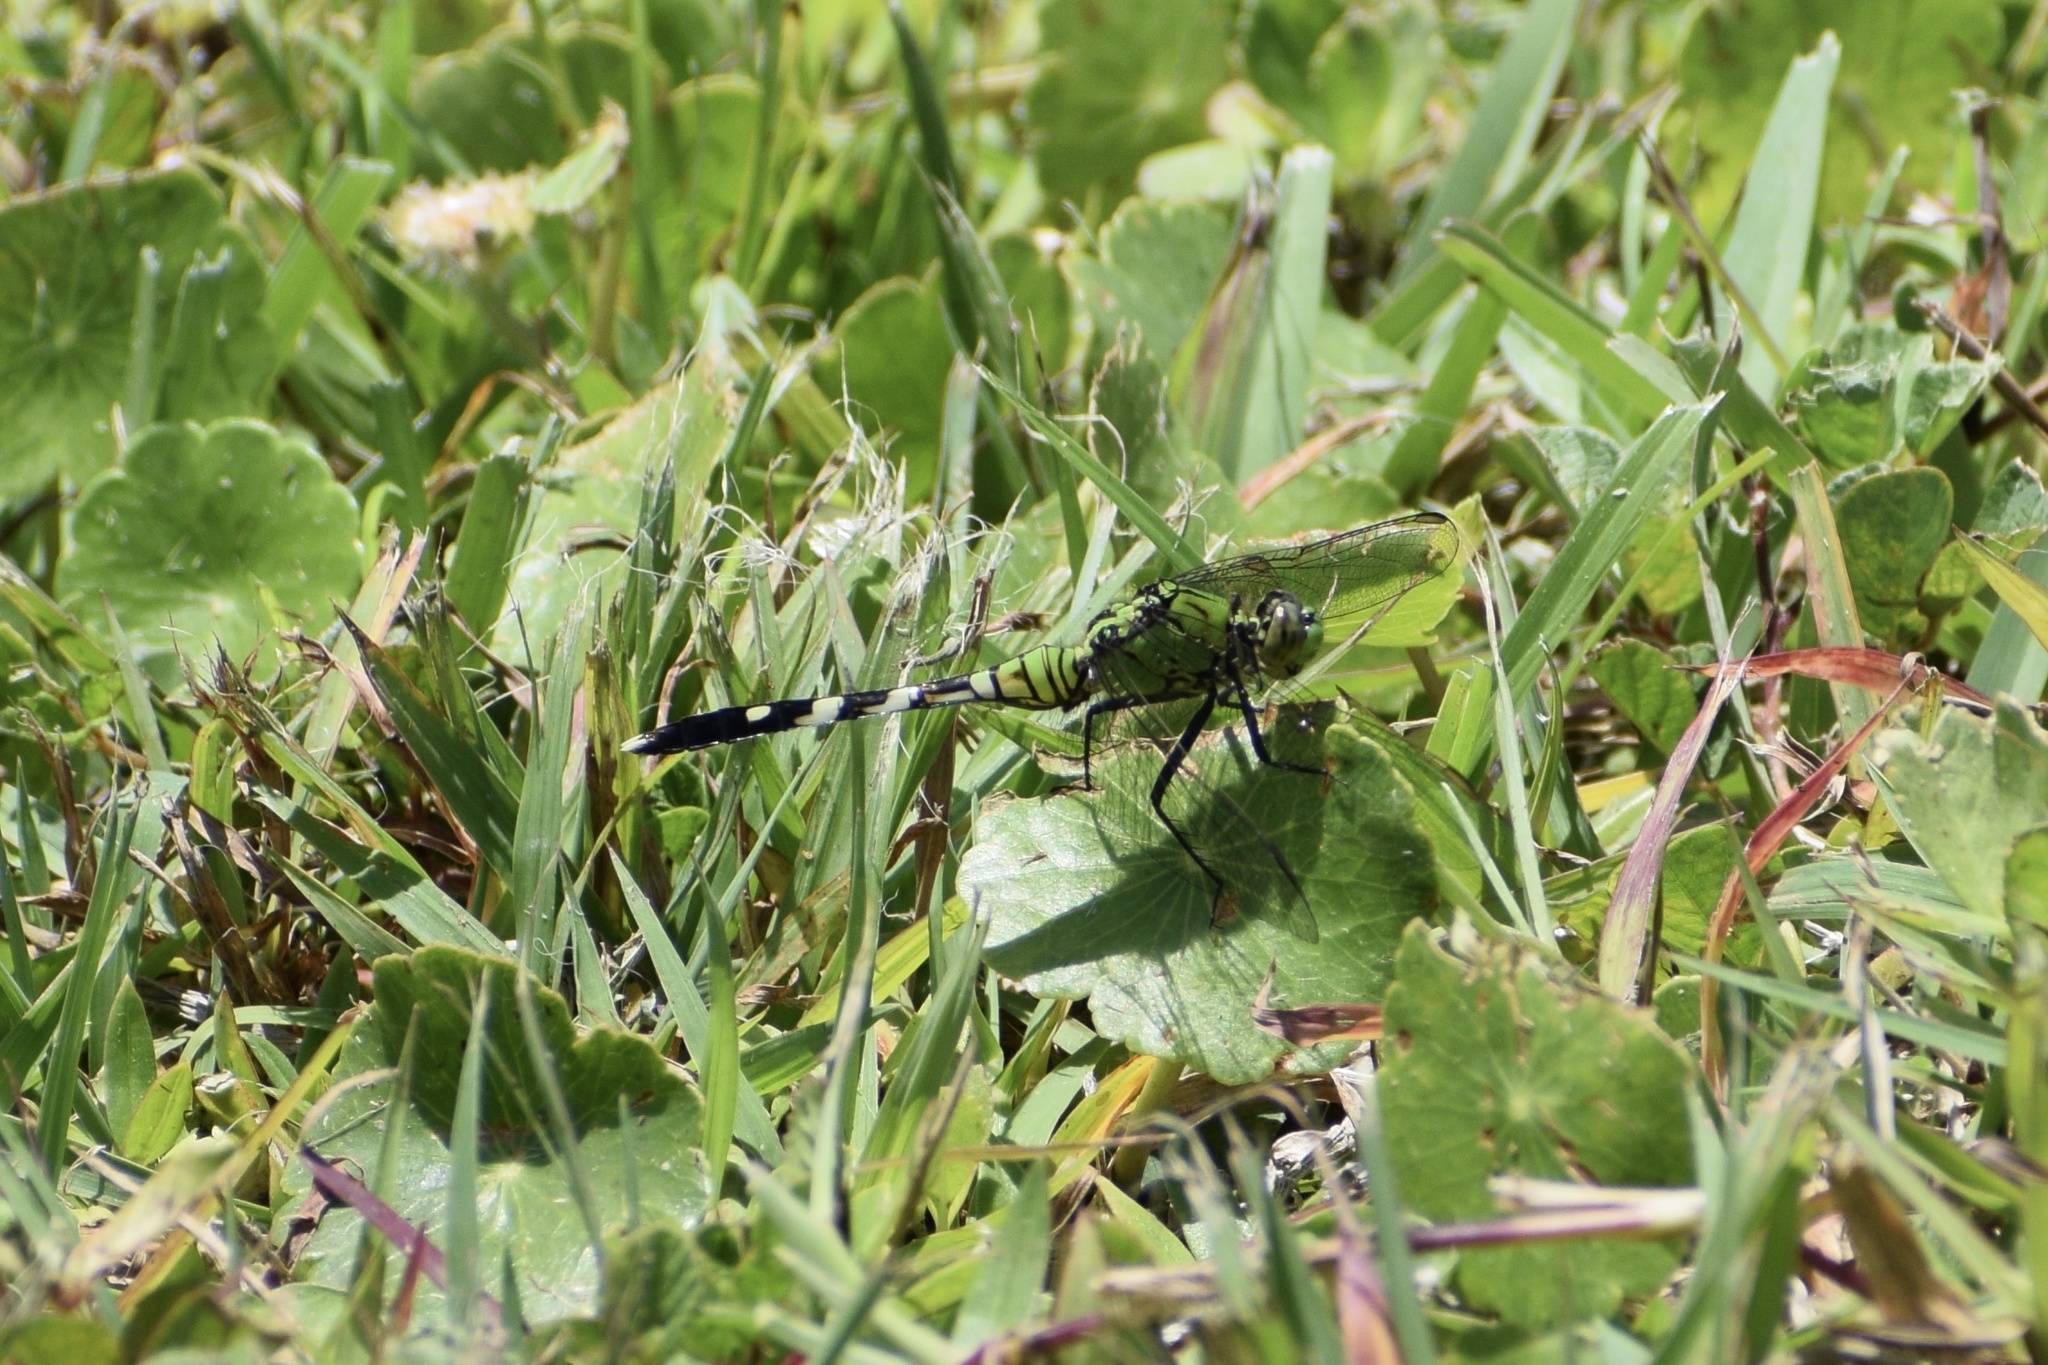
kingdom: Animalia
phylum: Arthropoda
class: Insecta
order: Odonata
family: Libellulidae
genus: Erythemis
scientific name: Erythemis simplicicollis
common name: Eastern pondhawk
